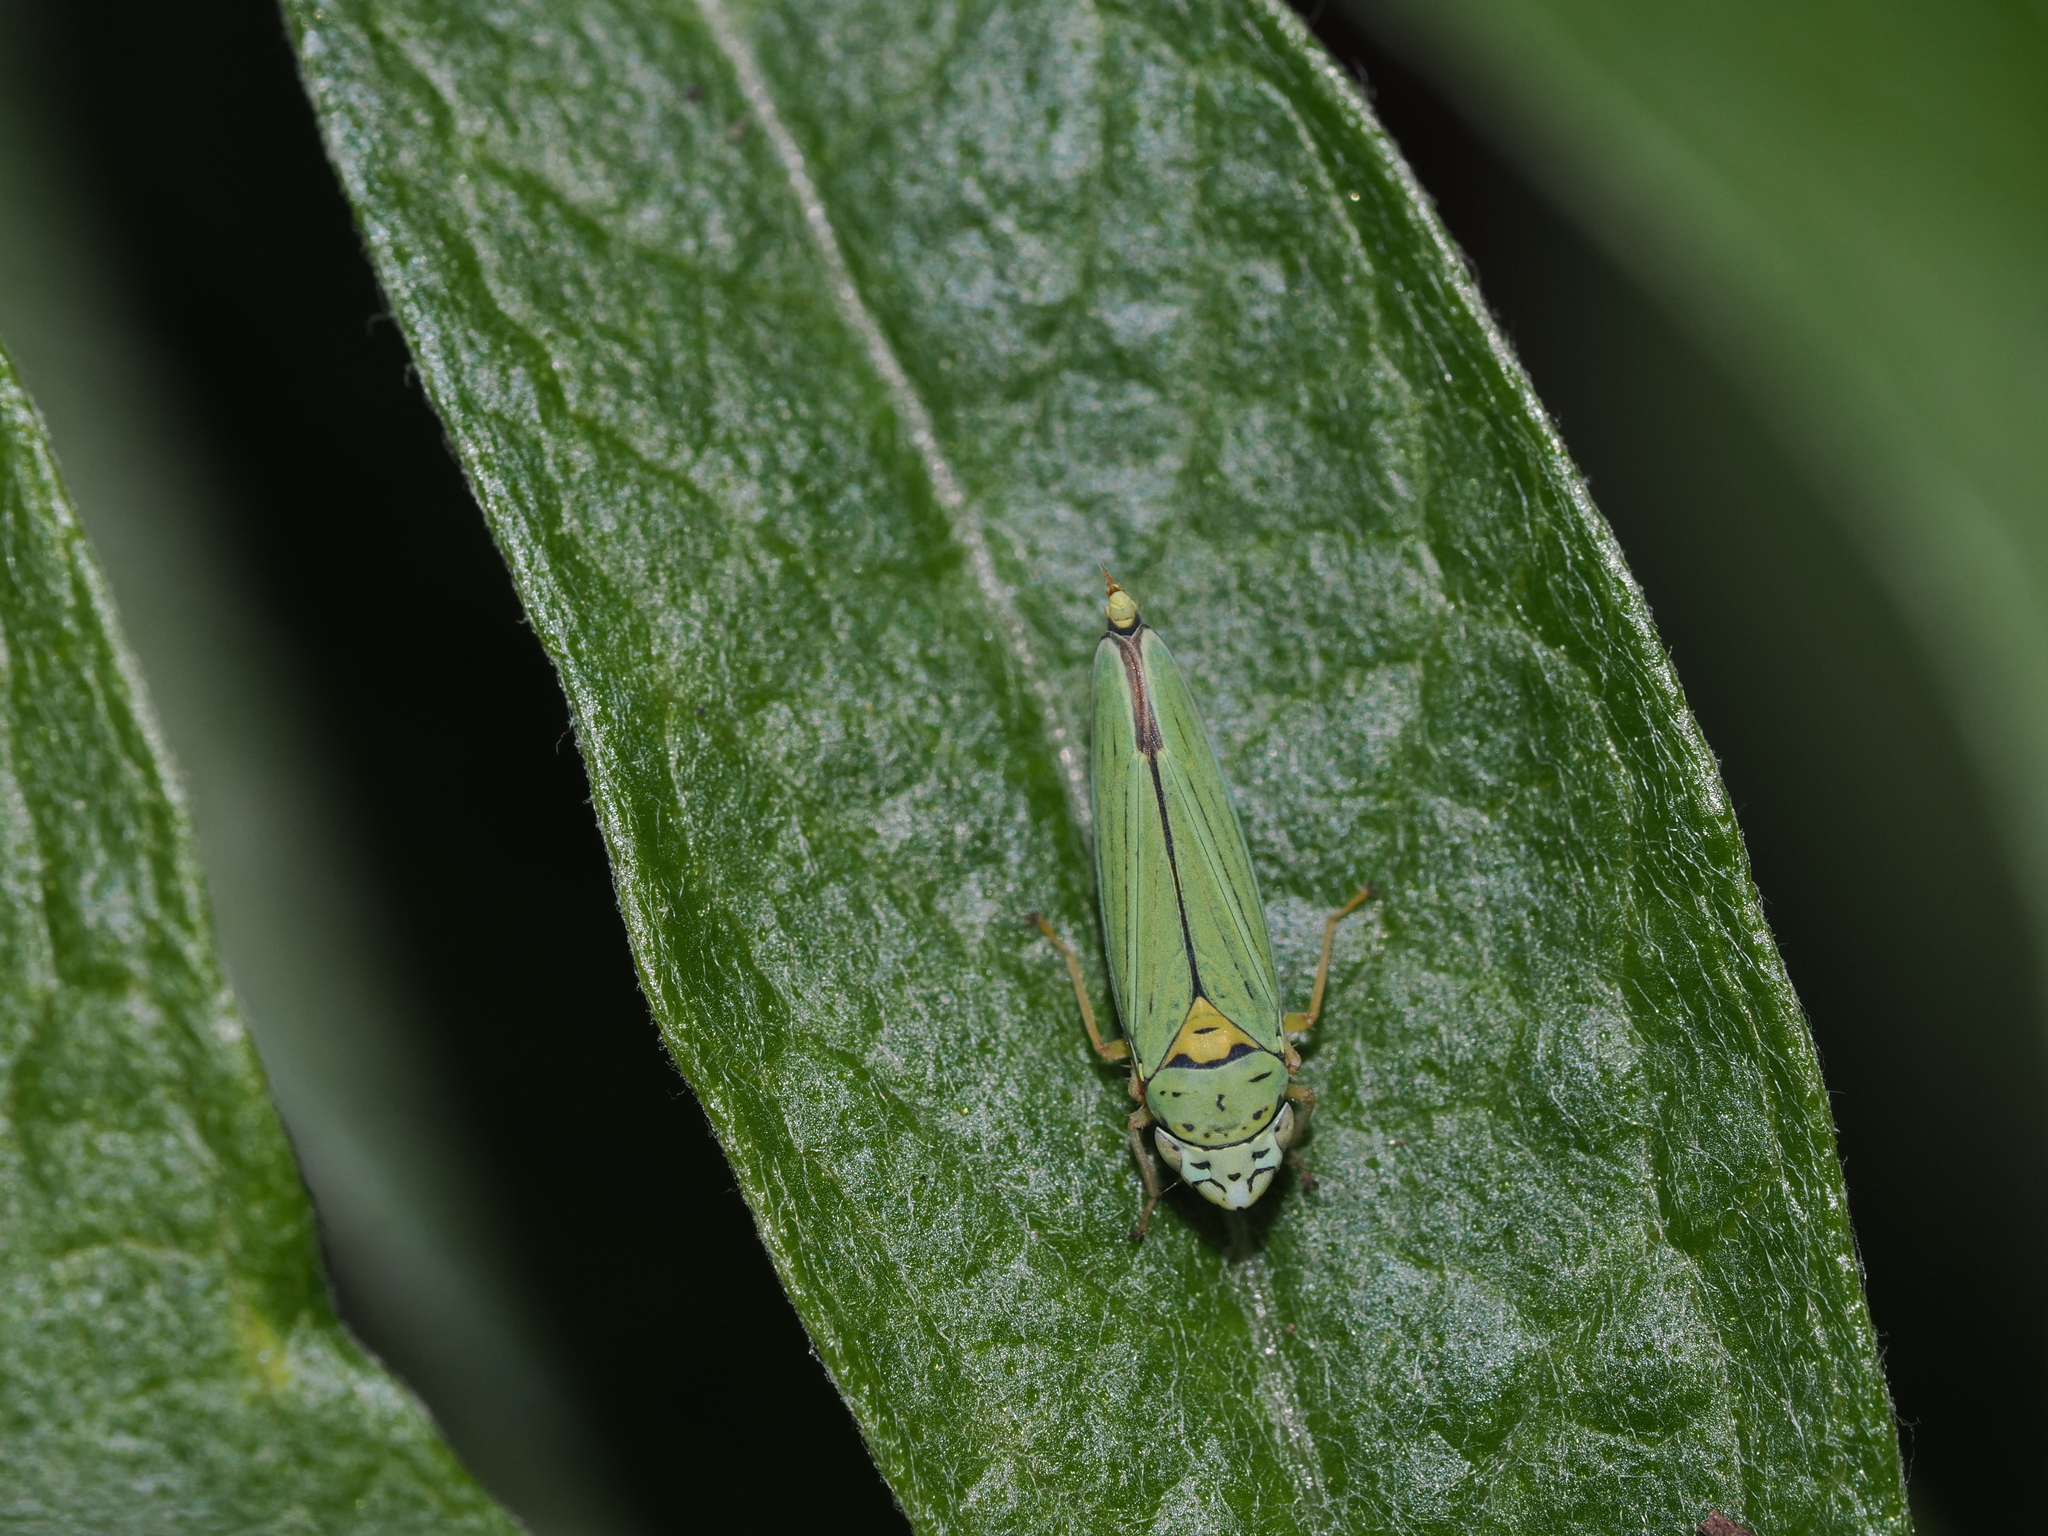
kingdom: Animalia
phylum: Arthropoda
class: Insecta
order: Hemiptera
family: Cicadellidae
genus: Graphocephala
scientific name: Graphocephala atropunctata
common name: Blue-green sharpshooter
